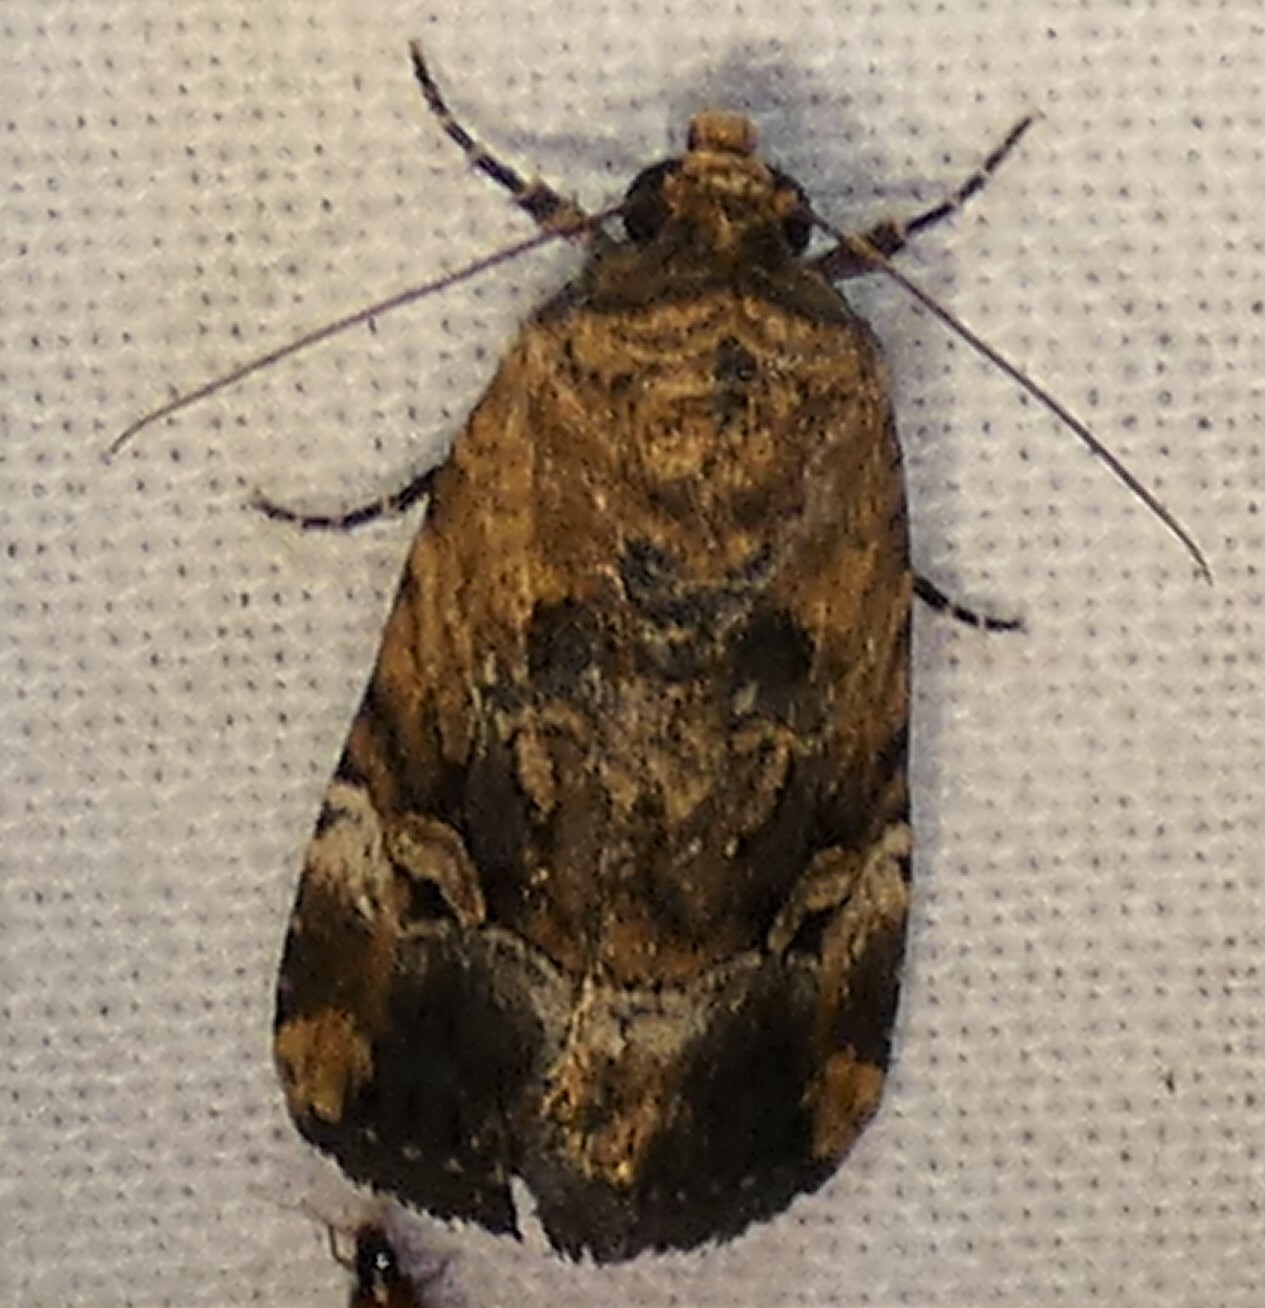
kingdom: Animalia
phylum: Arthropoda
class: Insecta
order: Lepidoptera
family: Noctuidae
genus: Elaphria
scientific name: Elaphria chalcedonia
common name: Chalcedony midget
